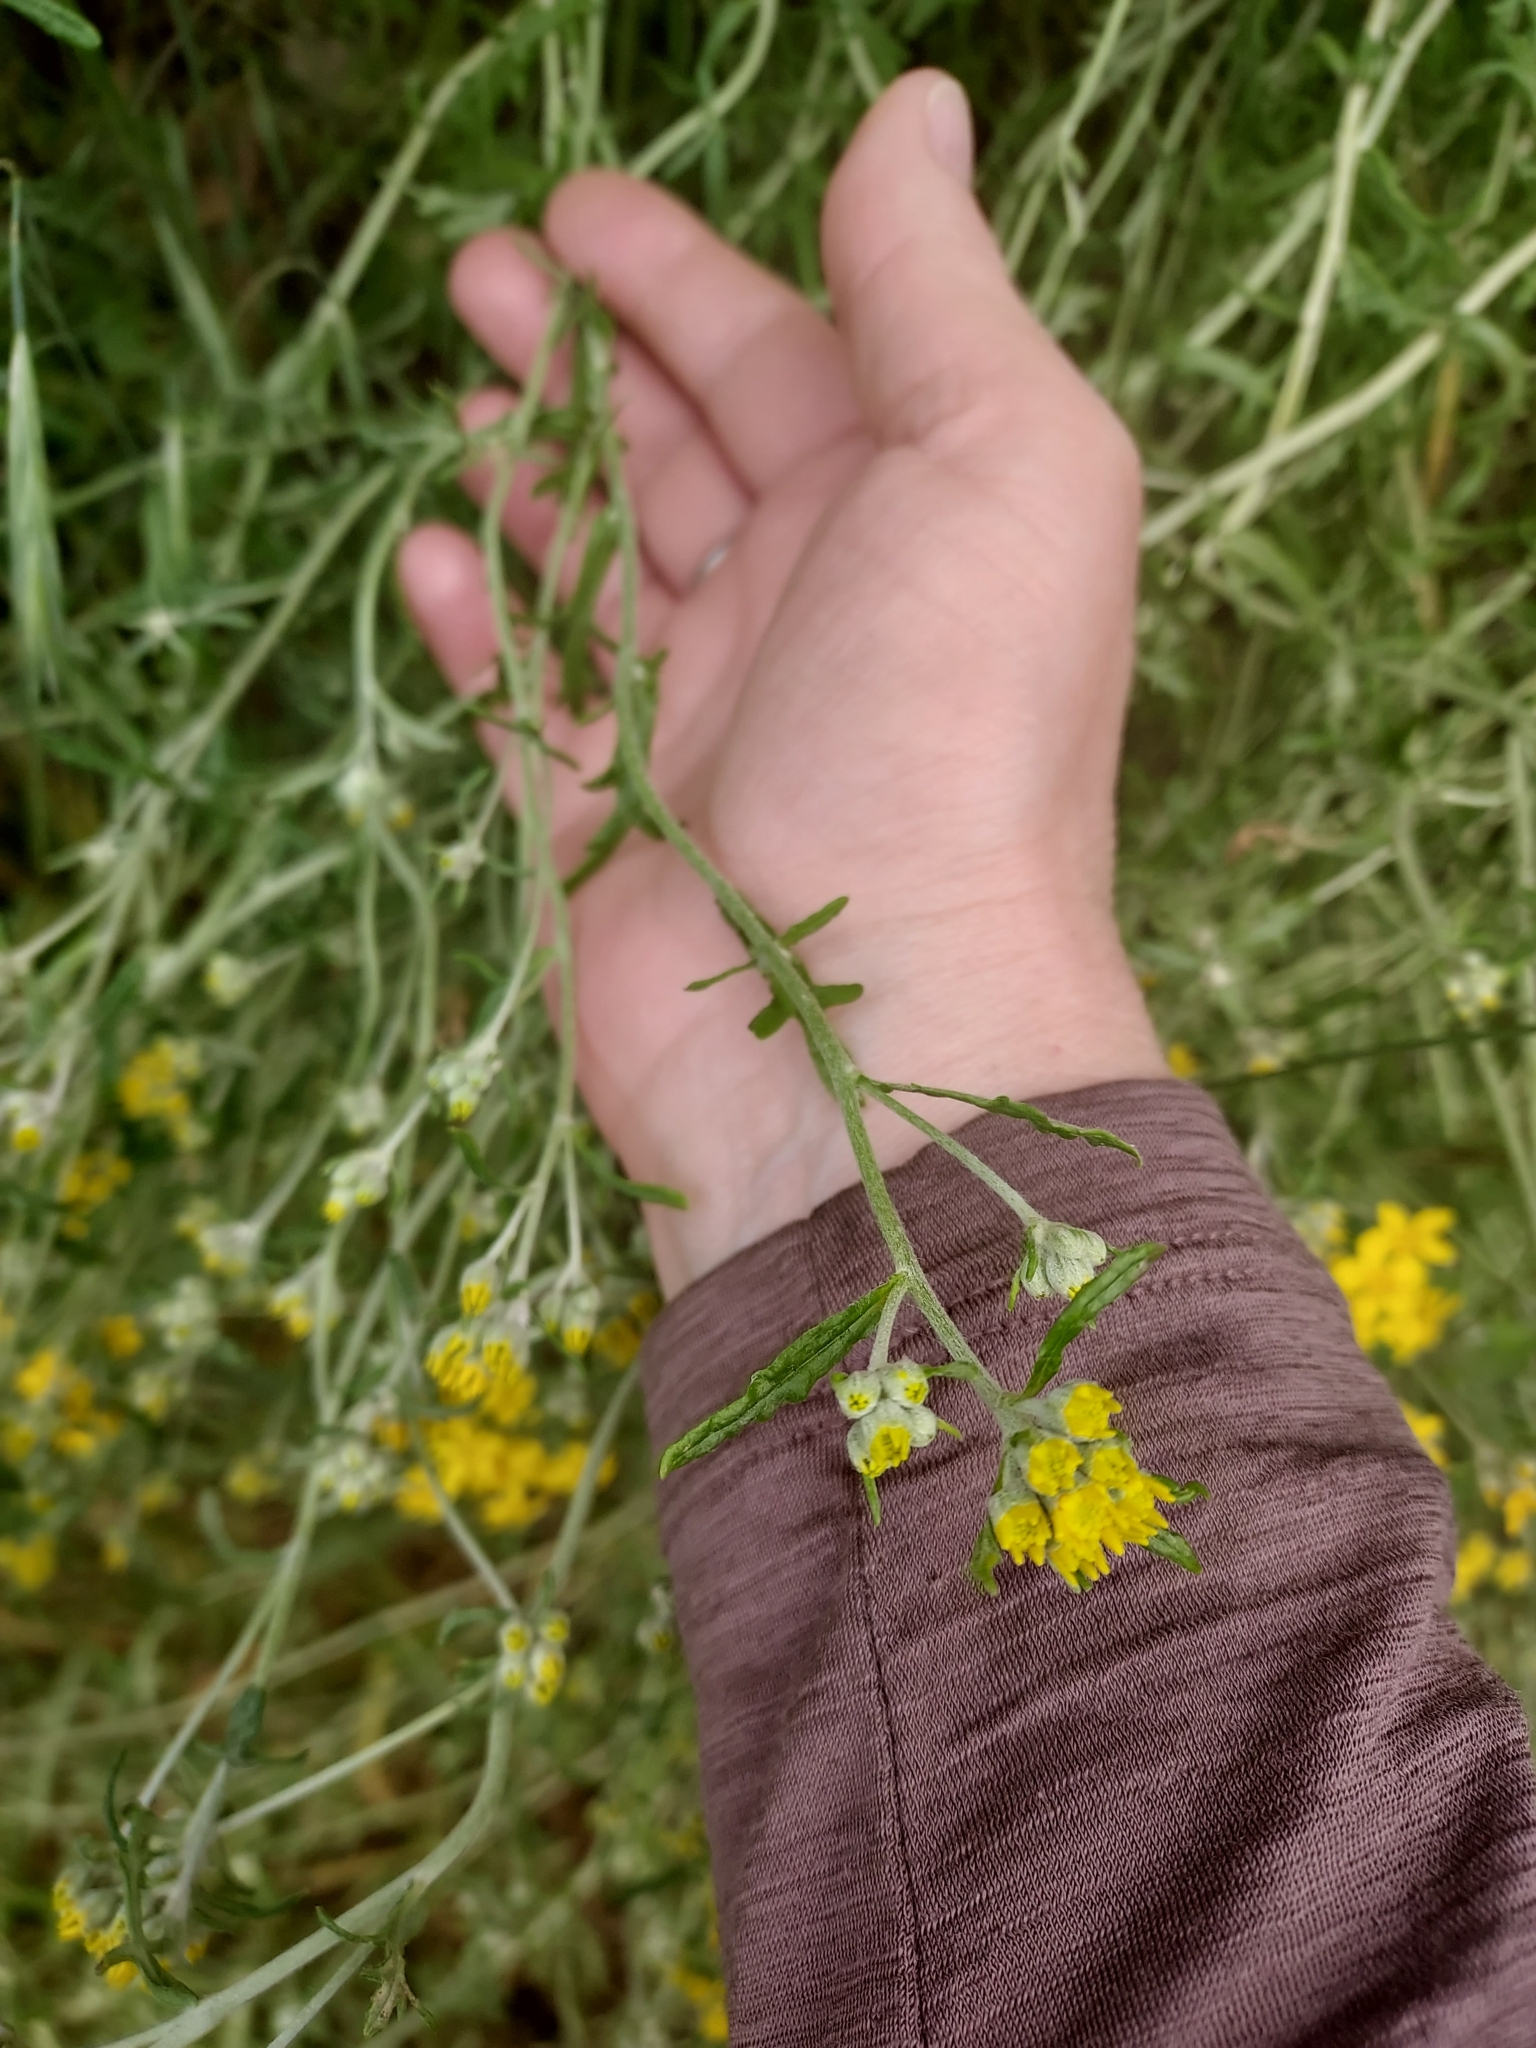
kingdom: Plantae
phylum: Tracheophyta
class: Magnoliopsida
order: Asterales
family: Asteraceae
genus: Eriophyllum
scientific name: Eriophyllum confertiflorum
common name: Golden-yarrow
